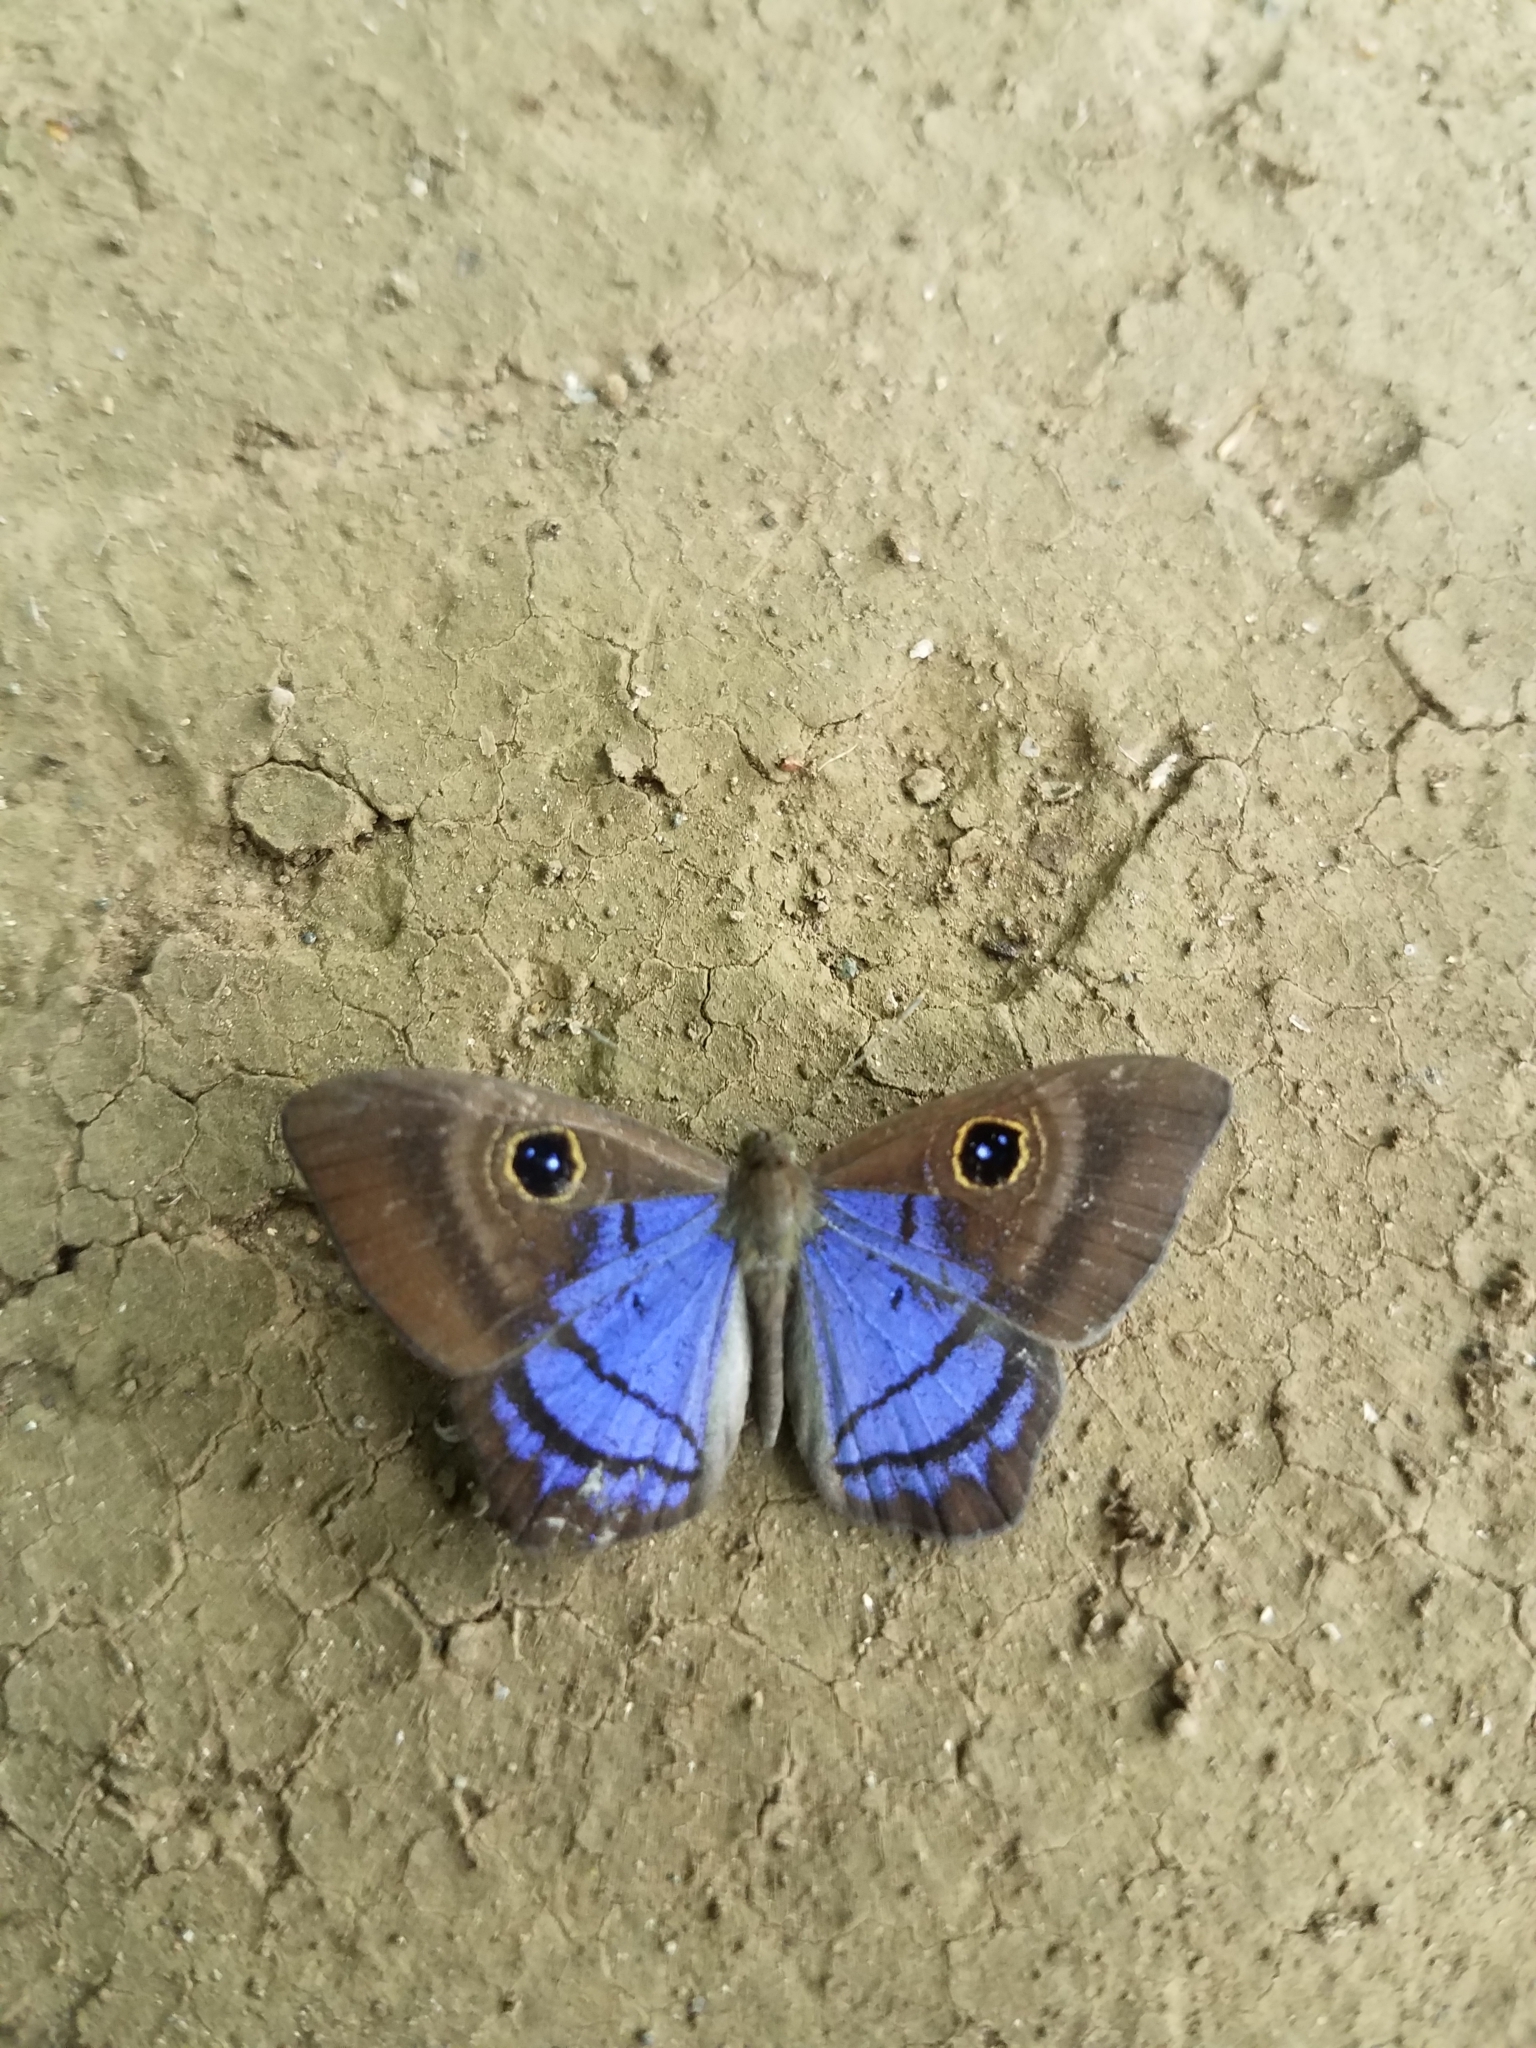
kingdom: Animalia
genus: Mesosemia
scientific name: Mesosemia
